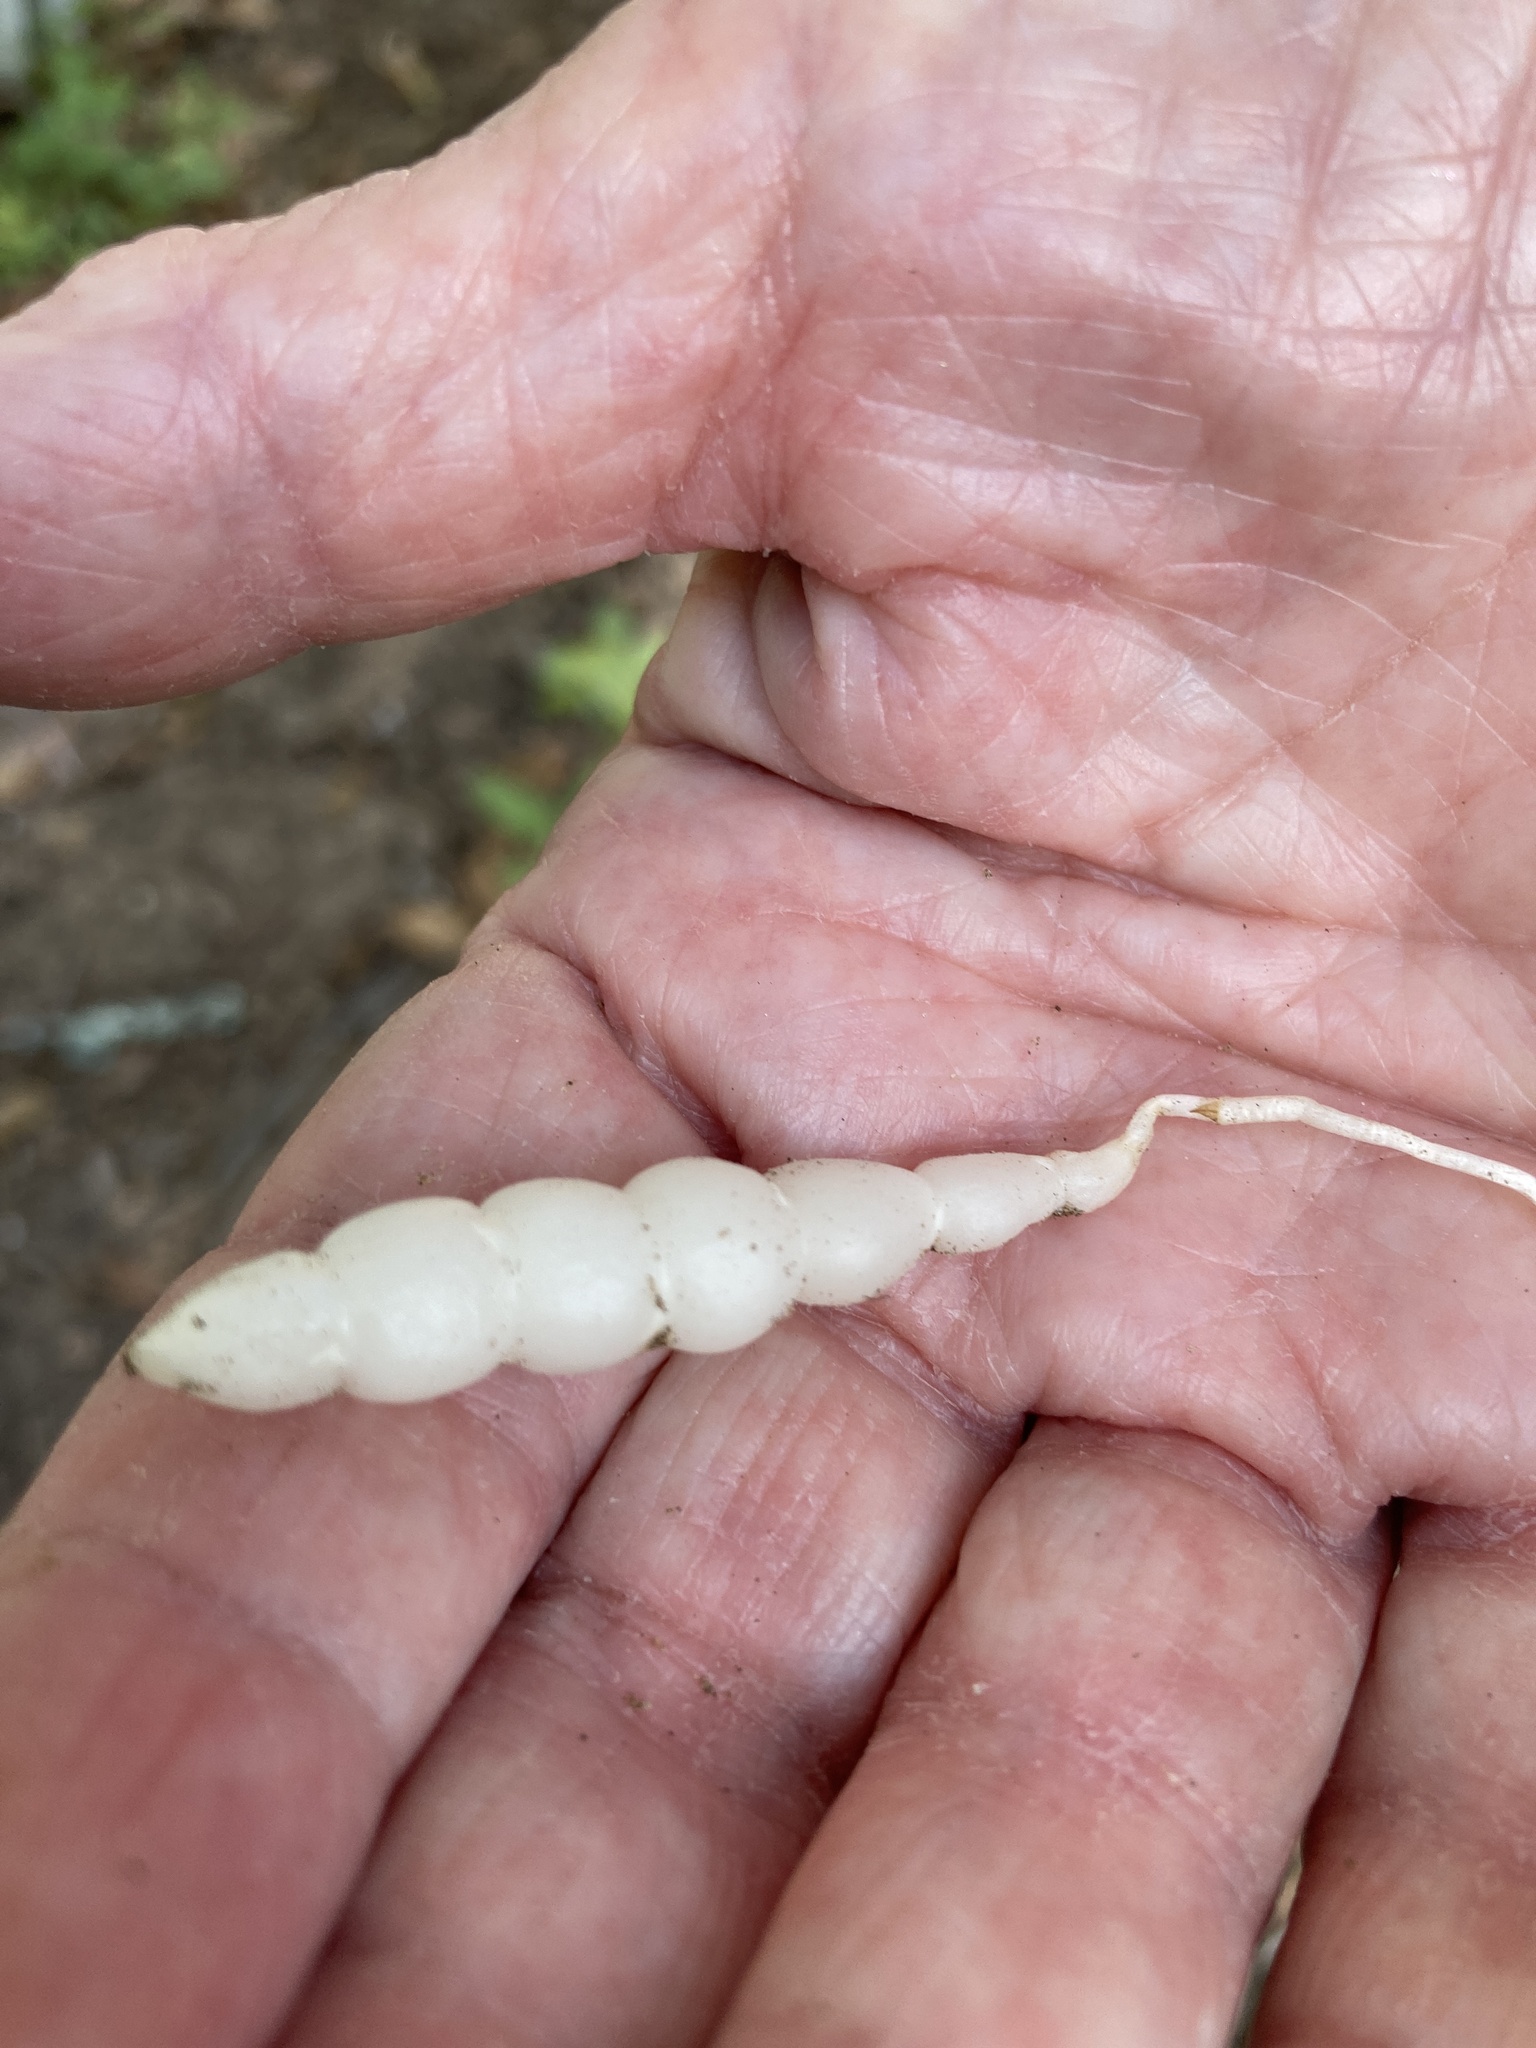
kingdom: Plantae
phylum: Tracheophyta
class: Magnoliopsida
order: Lamiales
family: Lamiaceae
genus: Stachys
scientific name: Stachys floridana
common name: Florida betony
